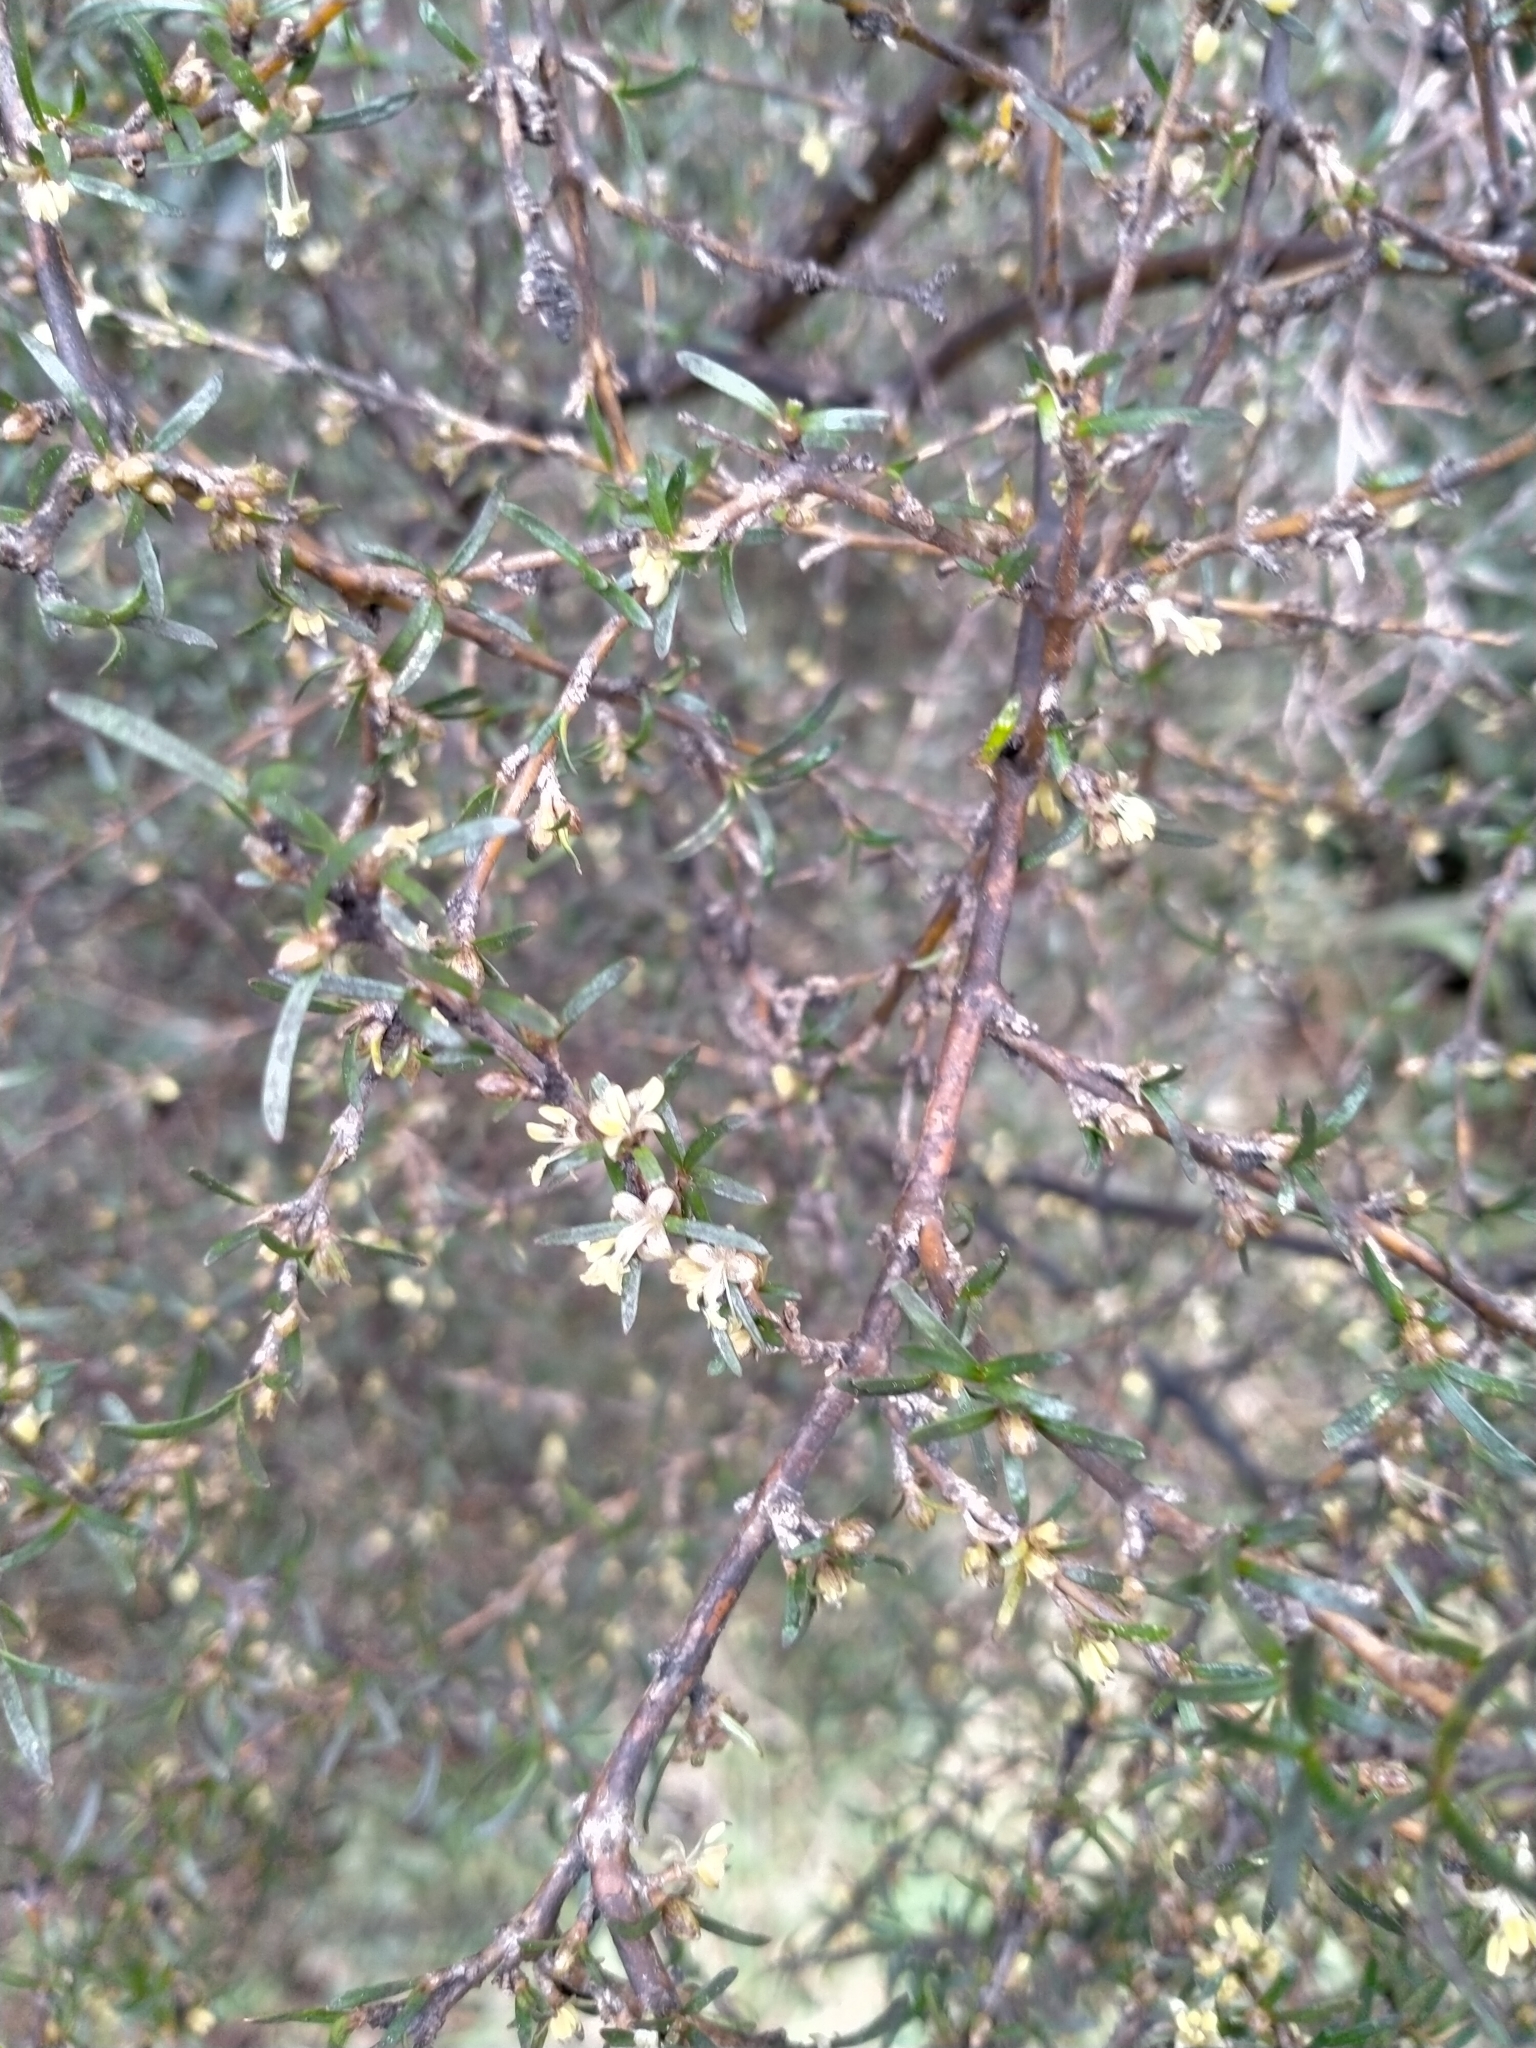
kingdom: Plantae
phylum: Tracheophyta
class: Magnoliopsida
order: Gentianales
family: Rubiaceae
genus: Coprosma
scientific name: Coprosma rugosa
